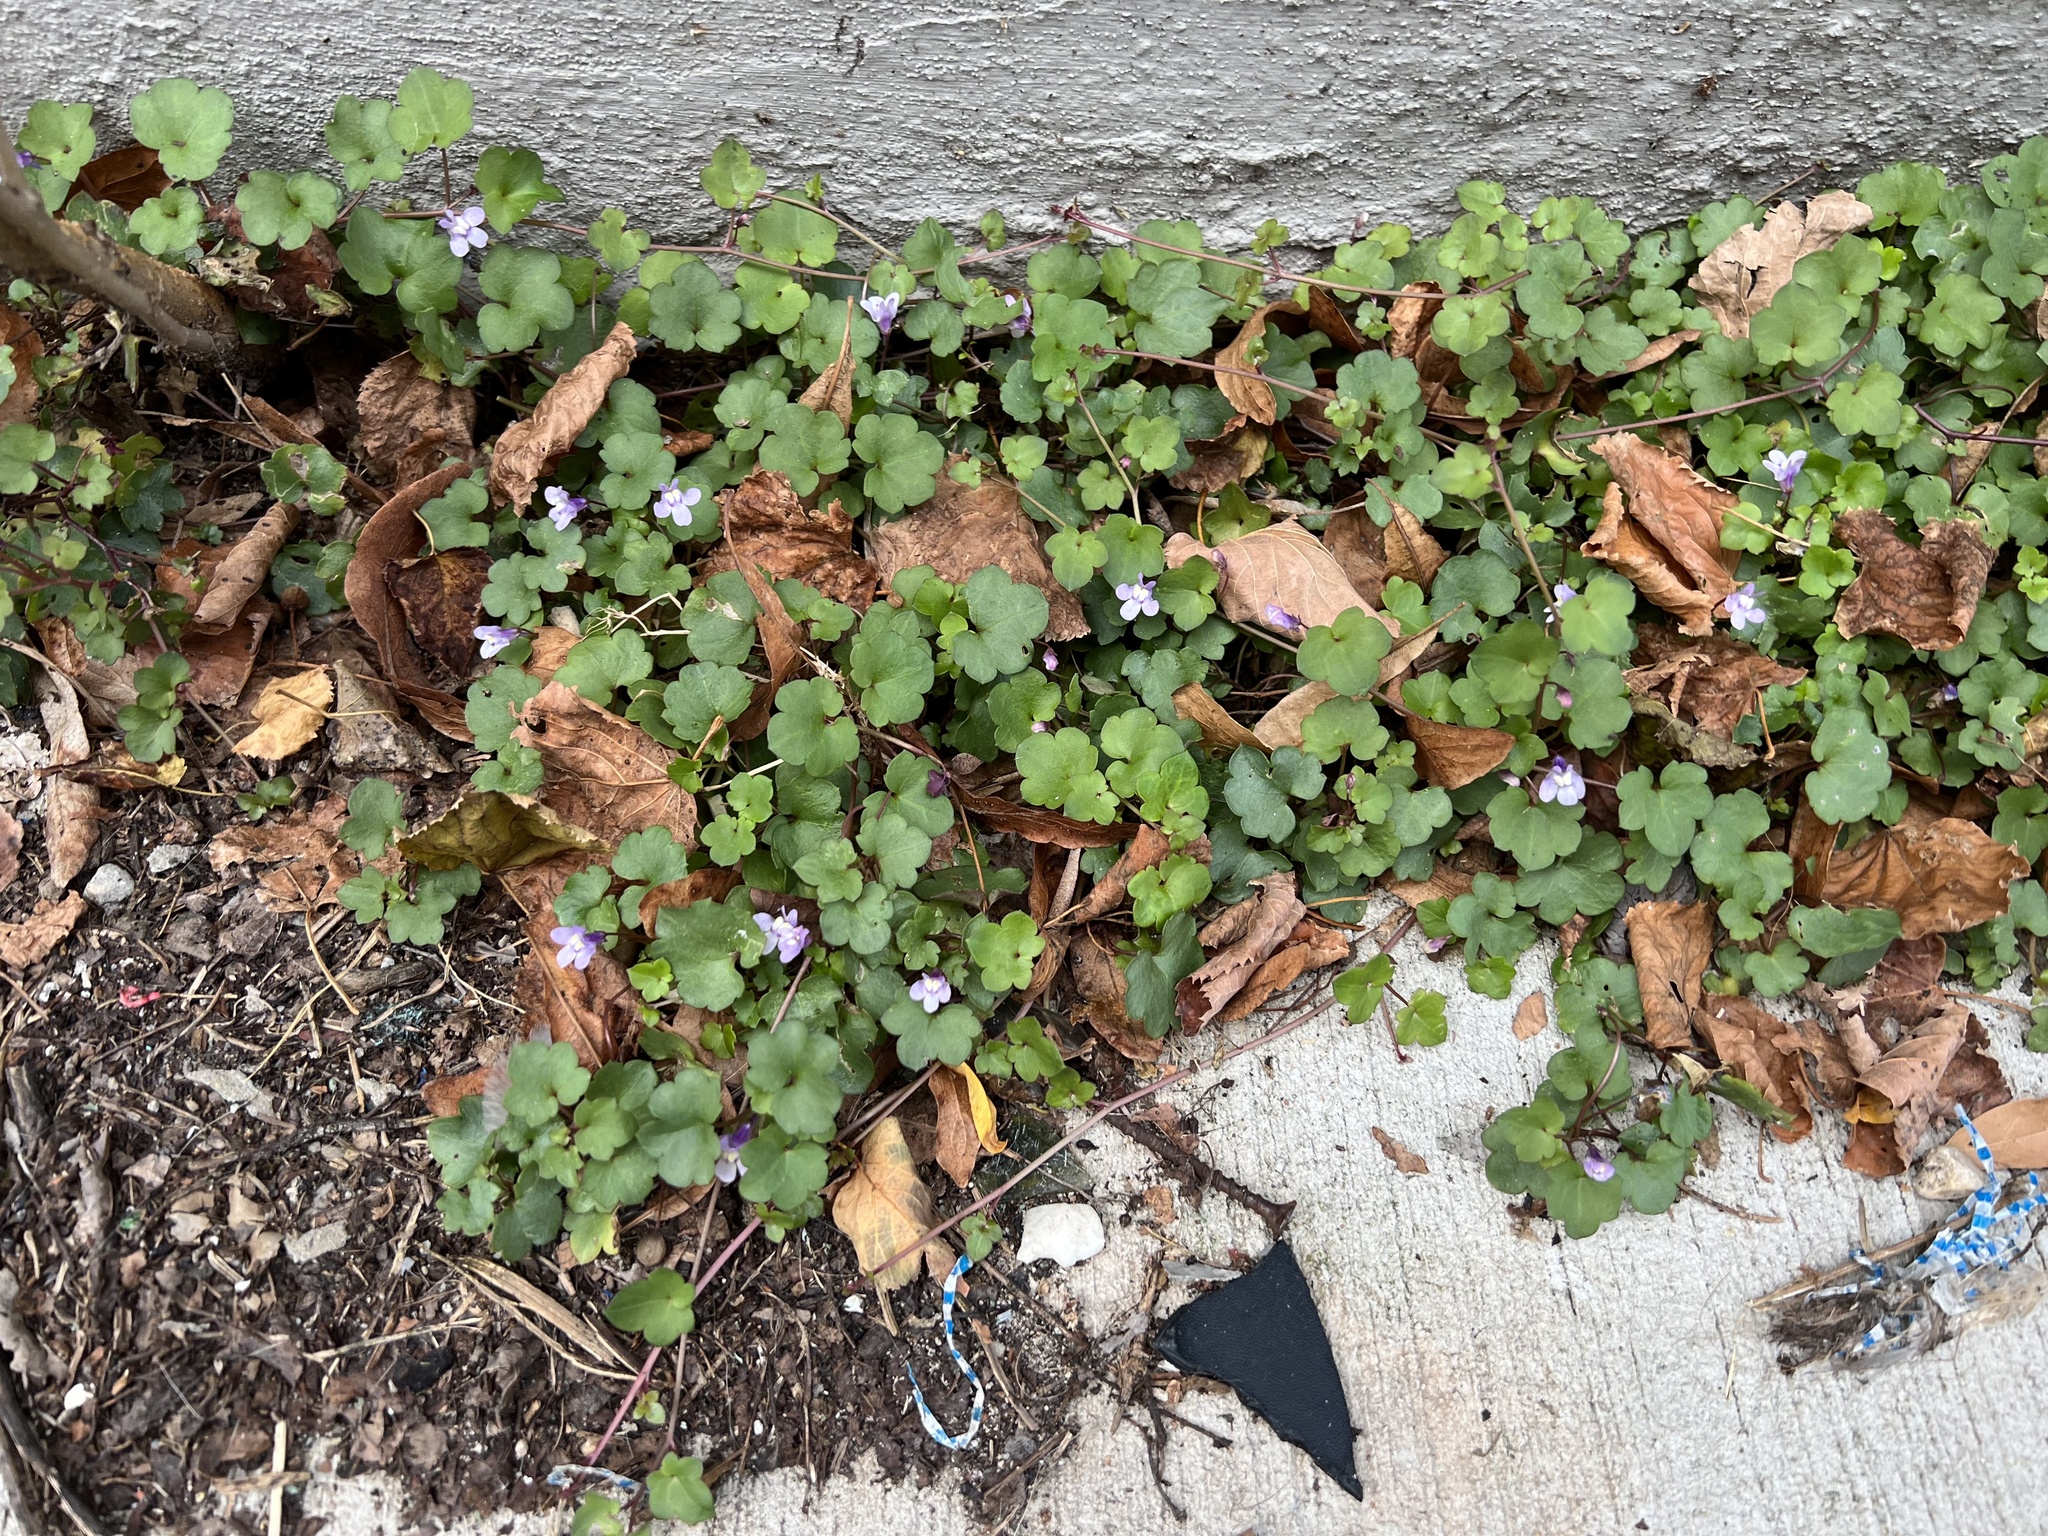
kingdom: Plantae
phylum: Tracheophyta
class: Magnoliopsida
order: Lamiales
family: Plantaginaceae
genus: Cymbalaria
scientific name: Cymbalaria muralis
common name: Ivy-leaved toadflax
